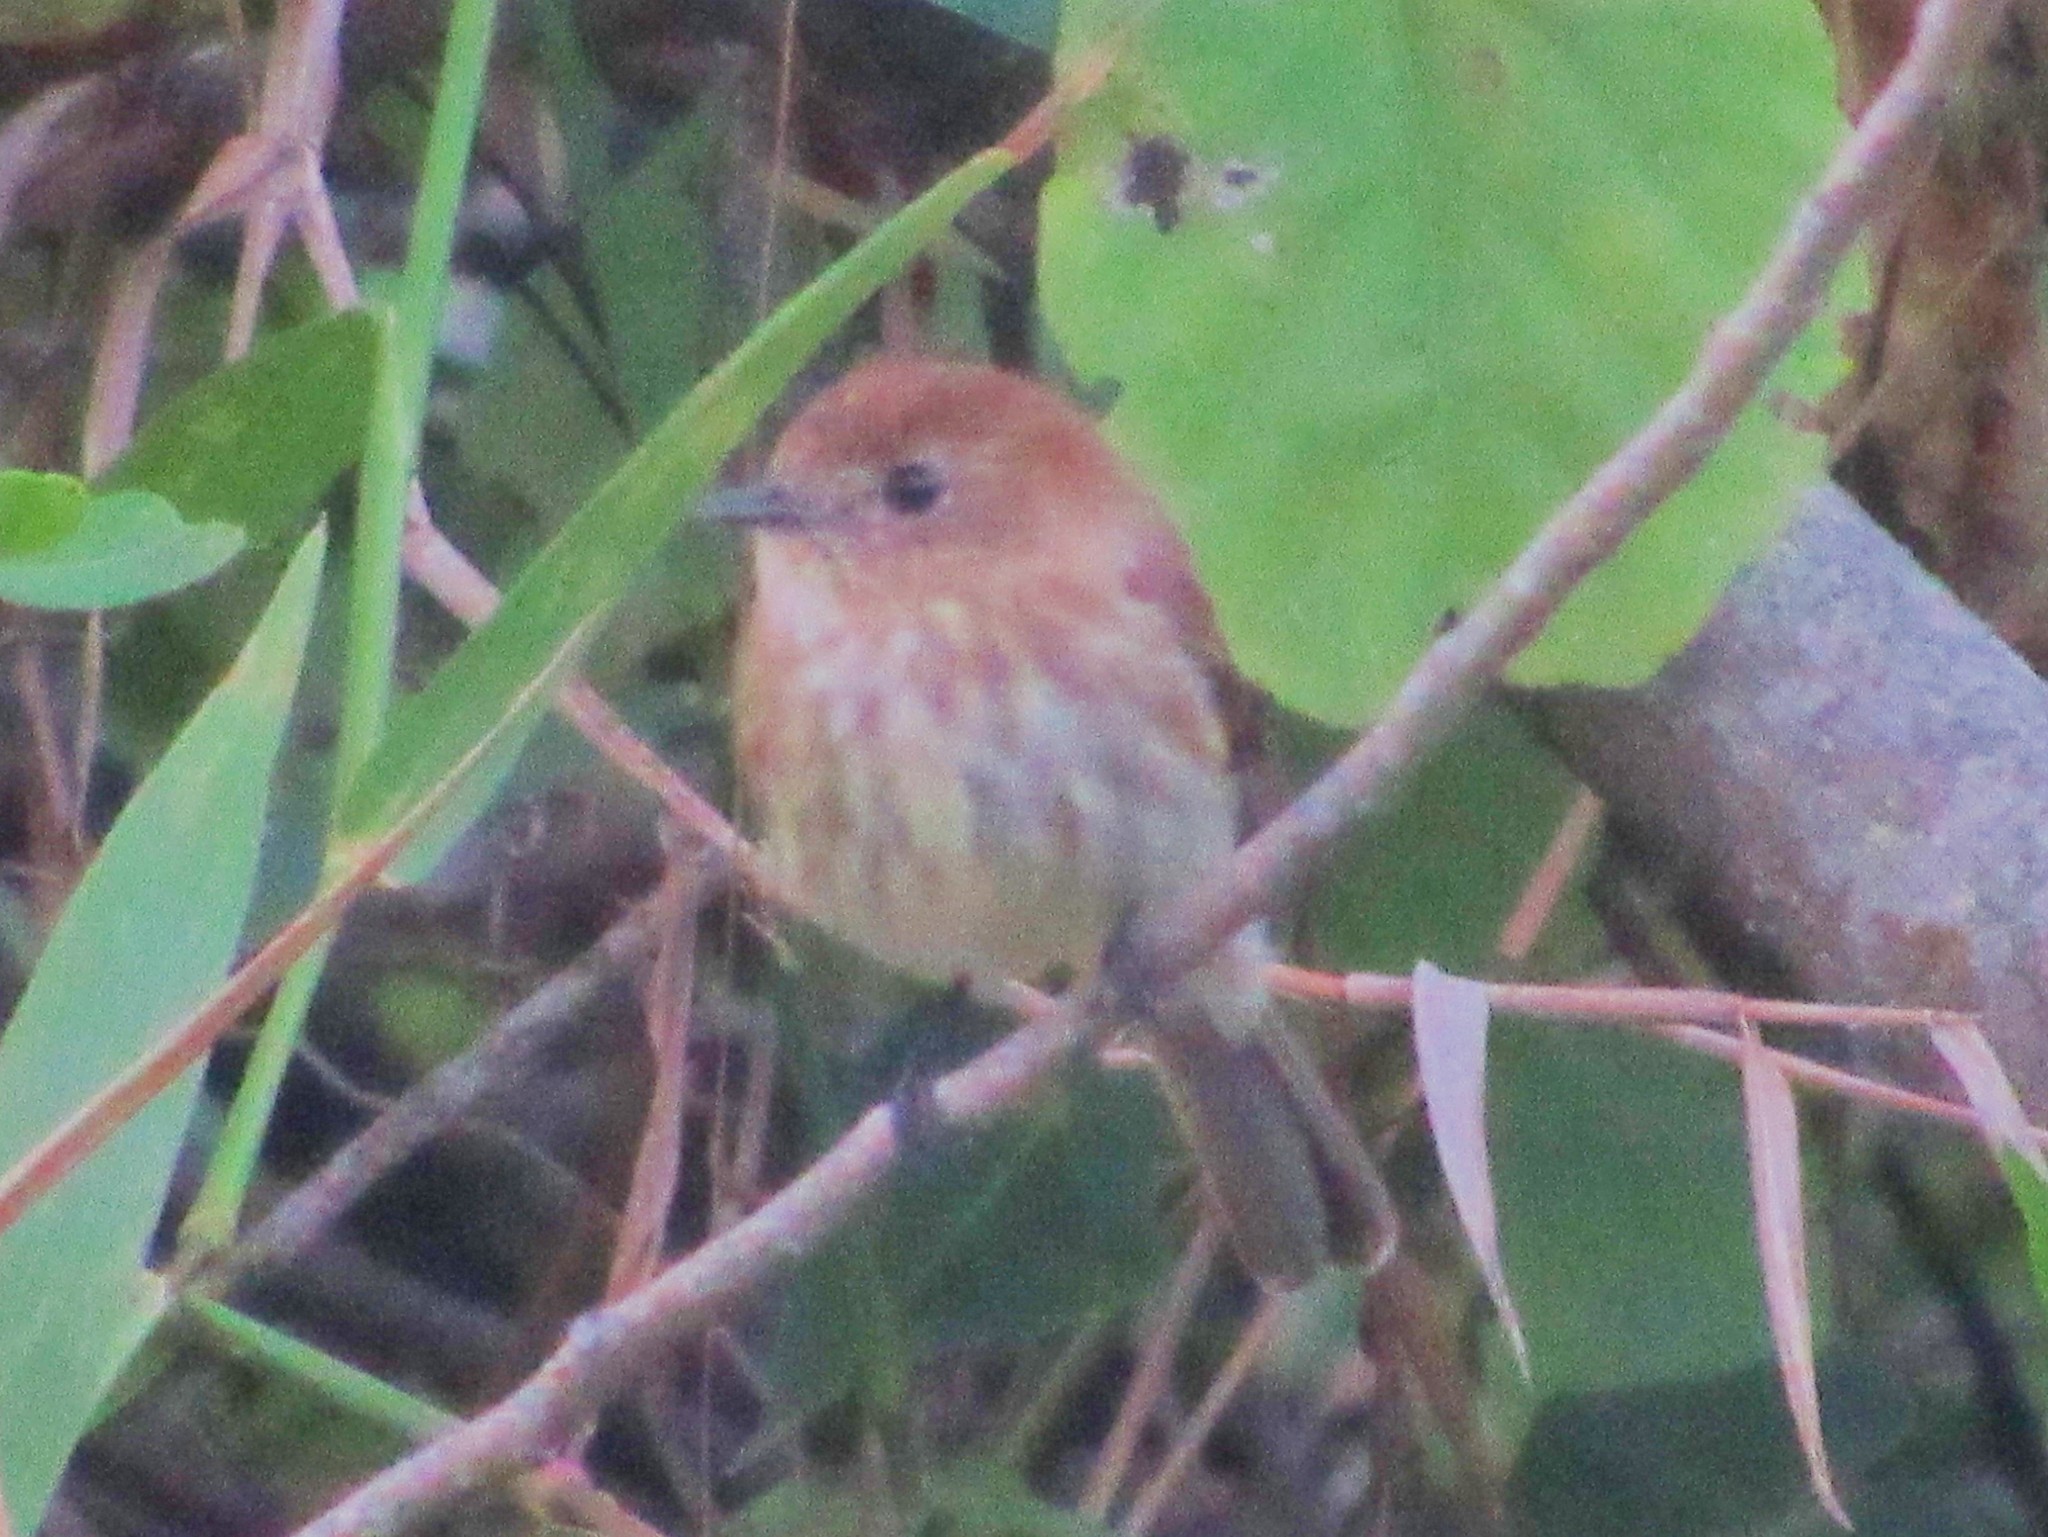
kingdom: Animalia
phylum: Chordata
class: Aves
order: Passeriformes
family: Tyrannidae
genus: Myiophobus
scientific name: Myiophobus fasciatus
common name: Bran-colored flycatcher
